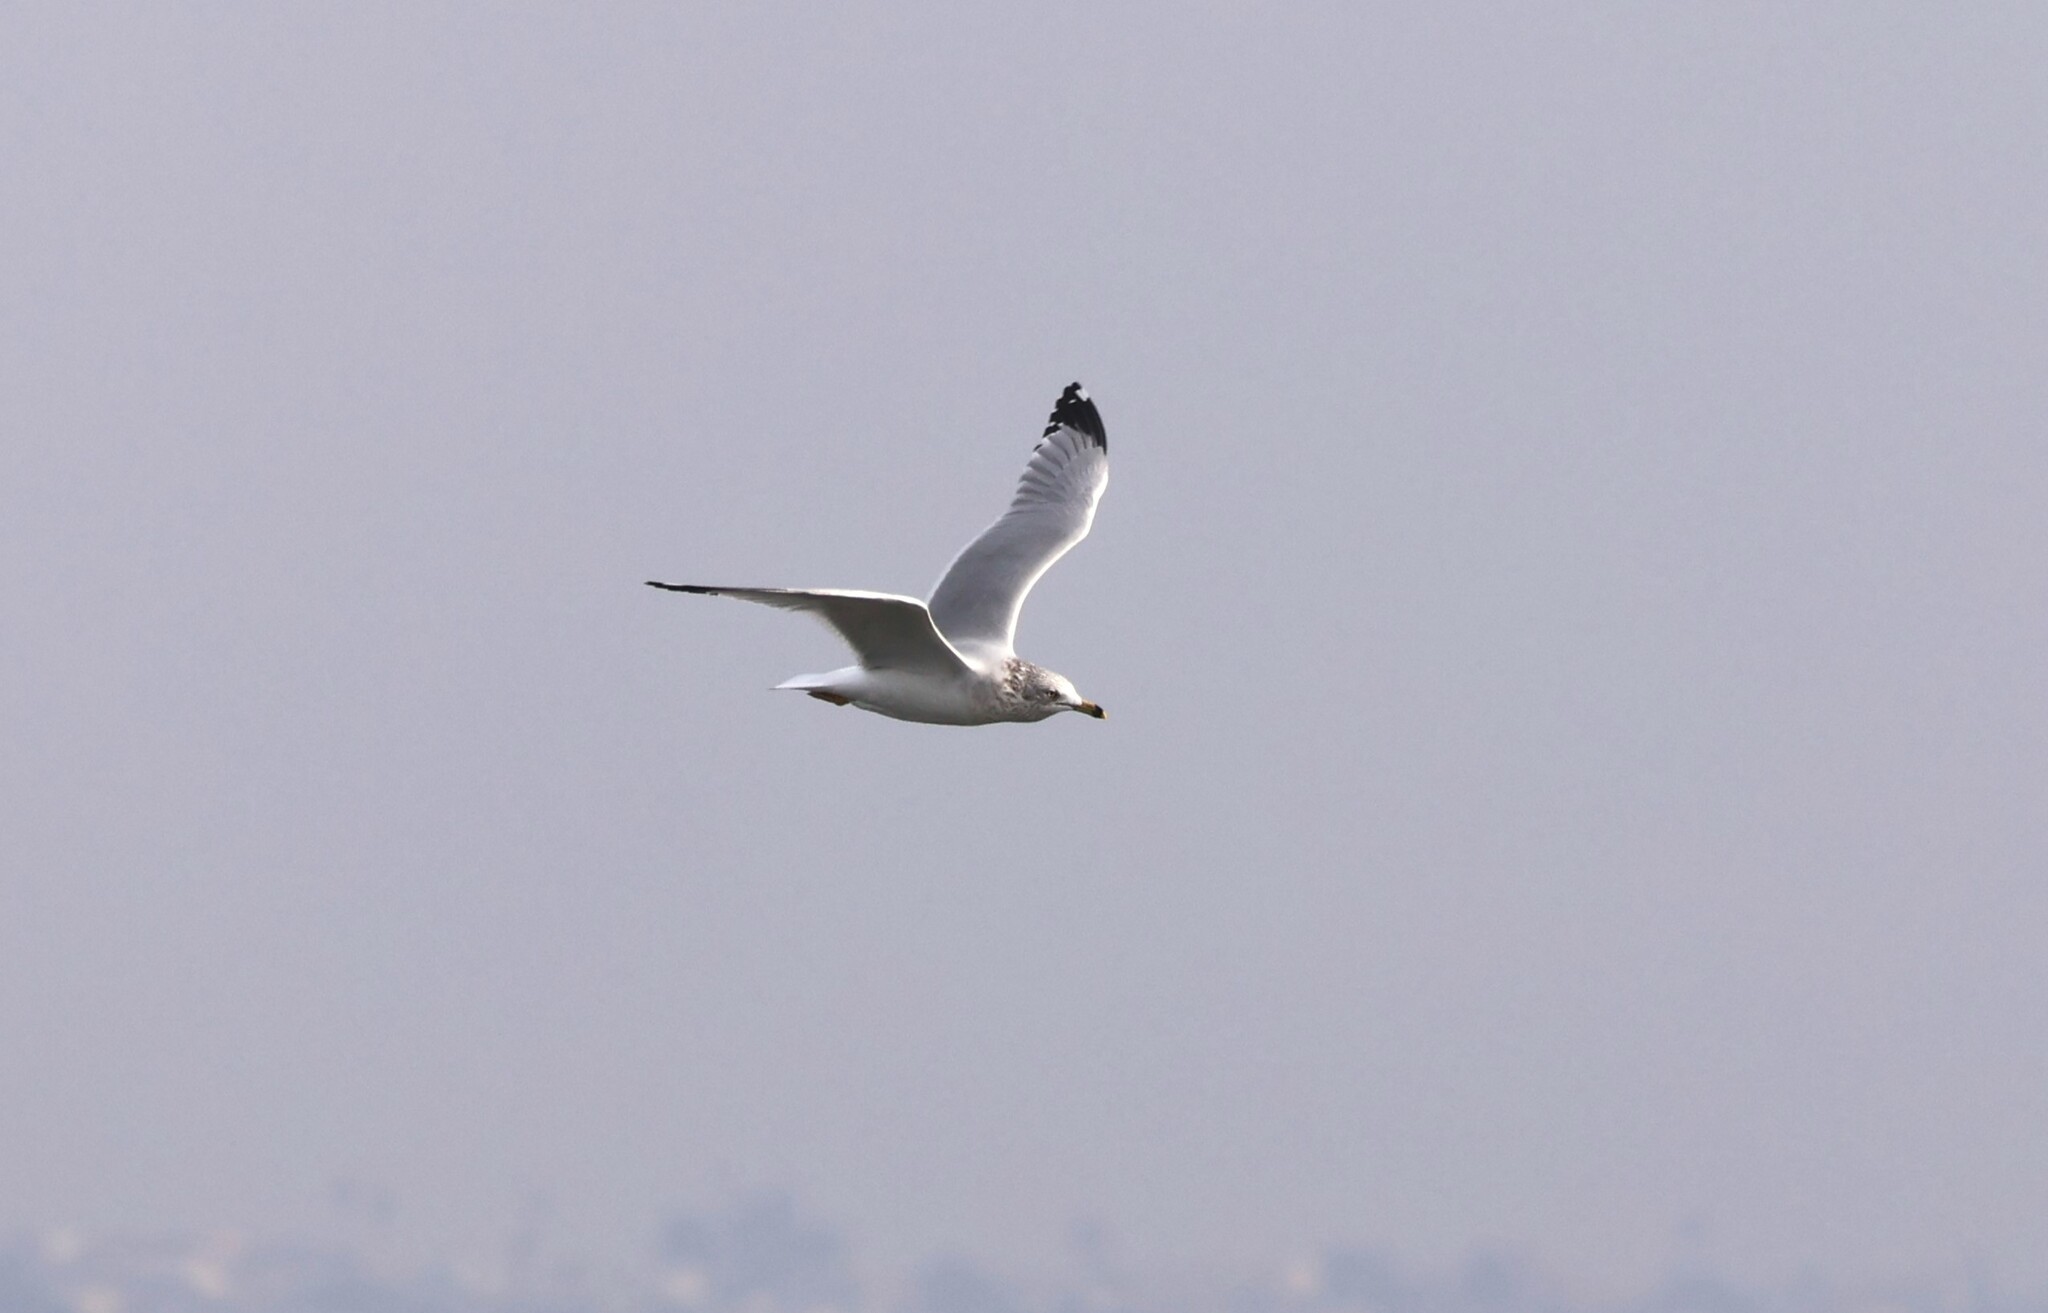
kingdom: Animalia
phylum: Chordata
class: Aves
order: Charadriiformes
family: Laridae
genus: Larus
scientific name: Larus delawarensis
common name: Ring-billed gull
